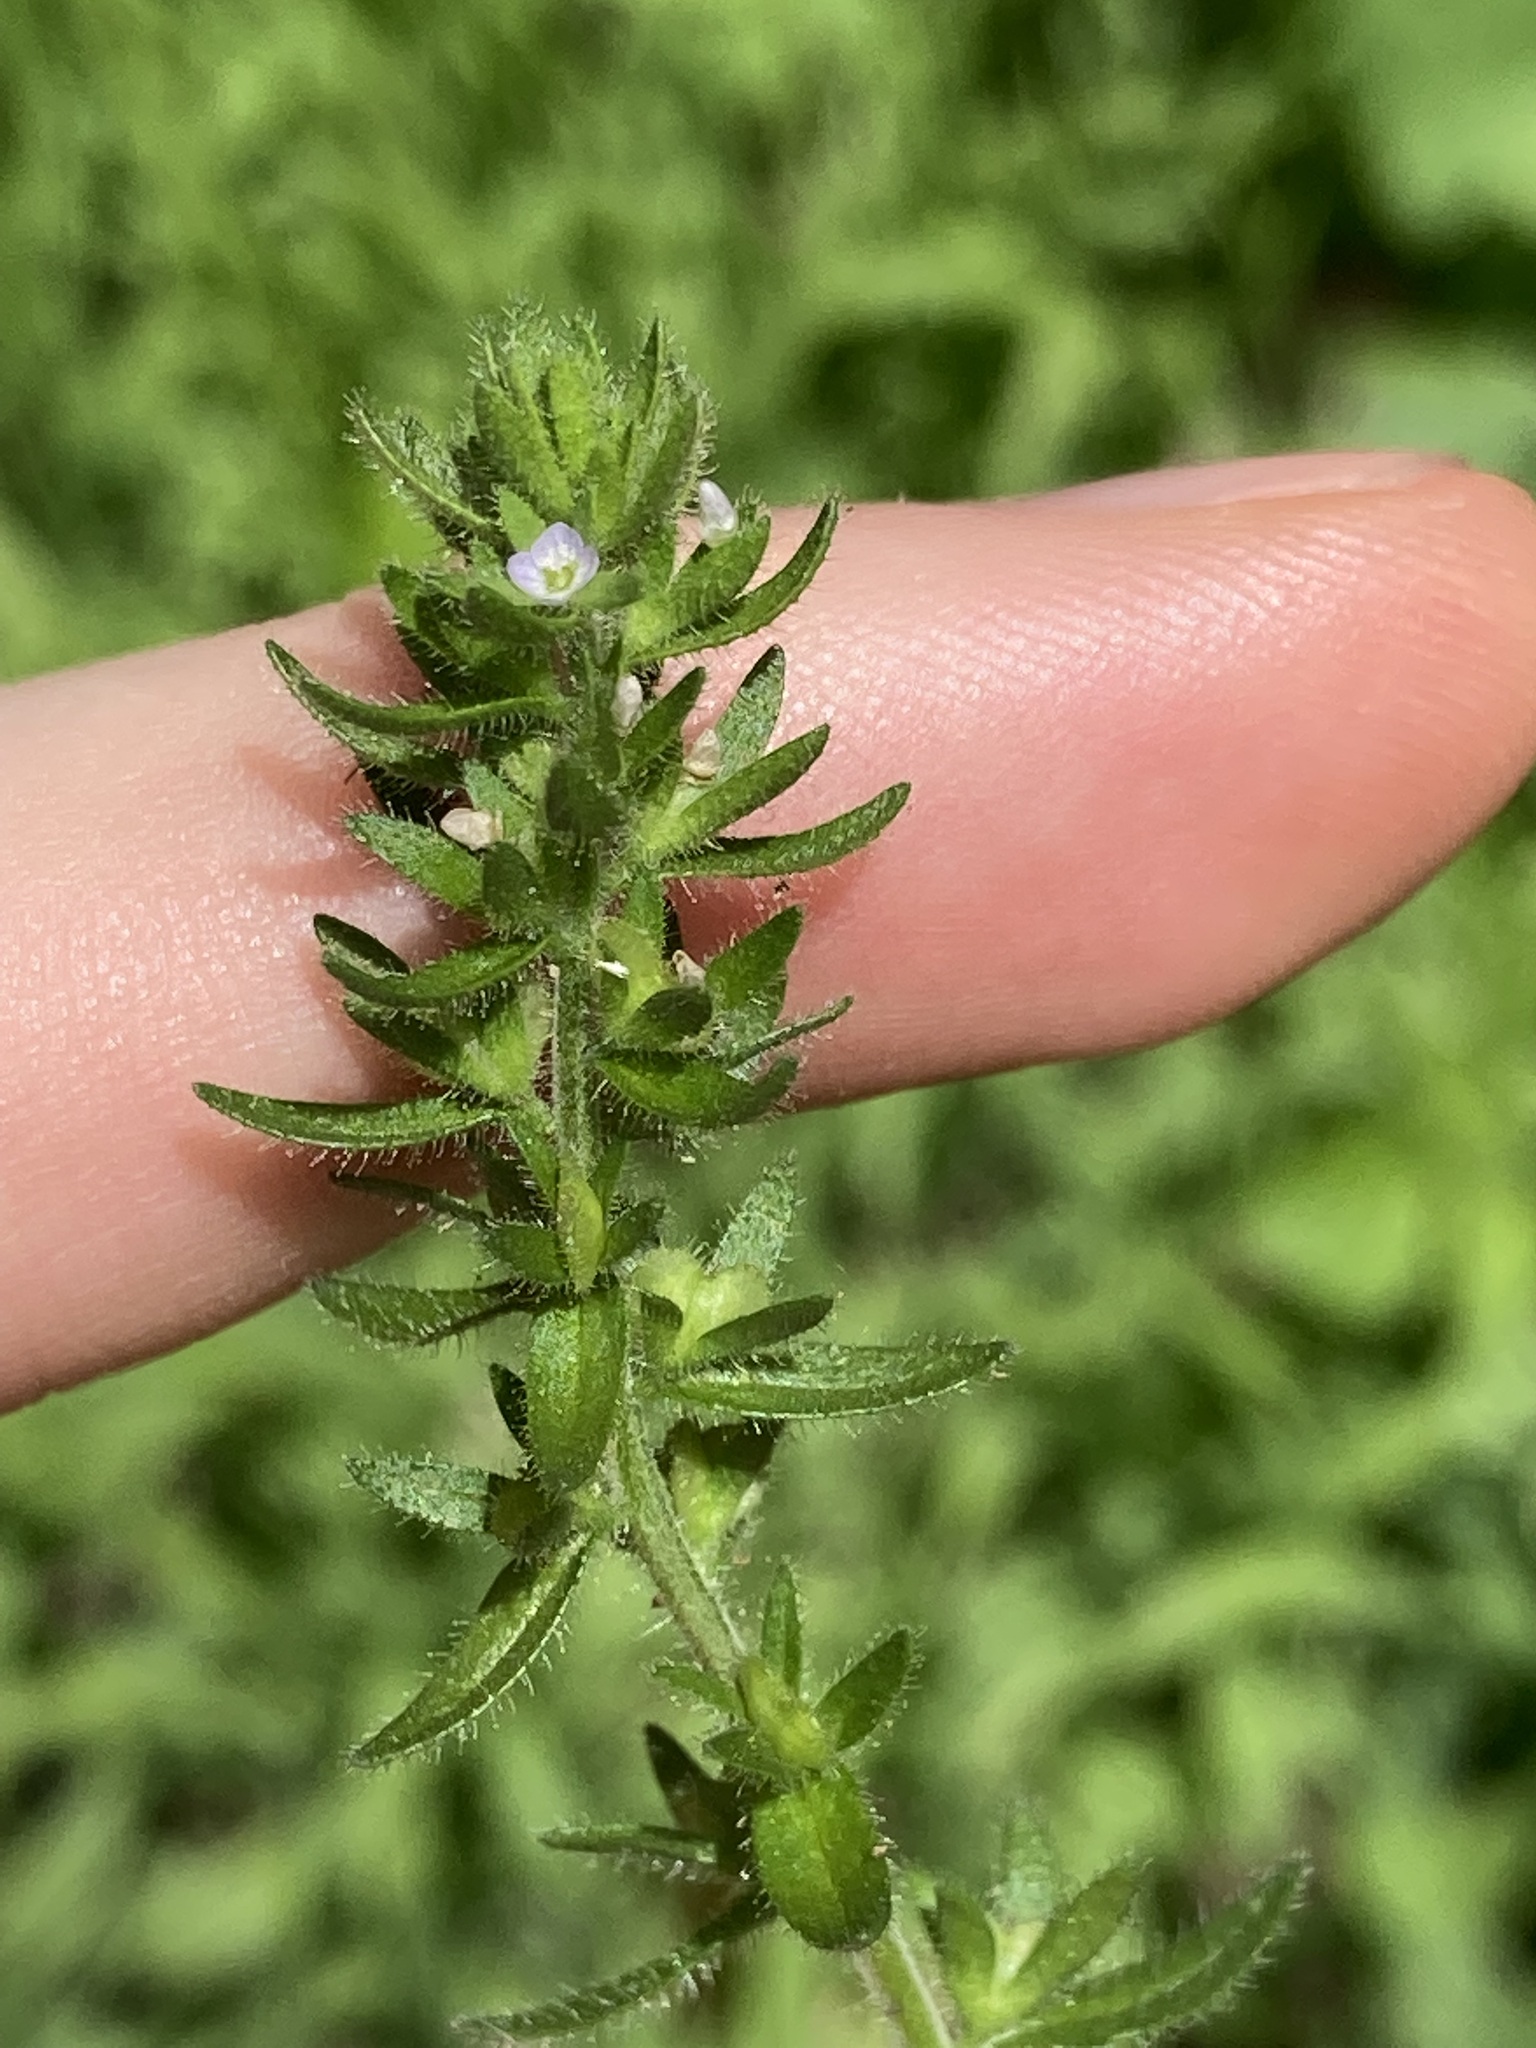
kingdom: Plantae
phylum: Tracheophyta
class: Magnoliopsida
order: Lamiales
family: Plantaginaceae
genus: Veronica
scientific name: Veronica arvensis
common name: Corn speedwell
